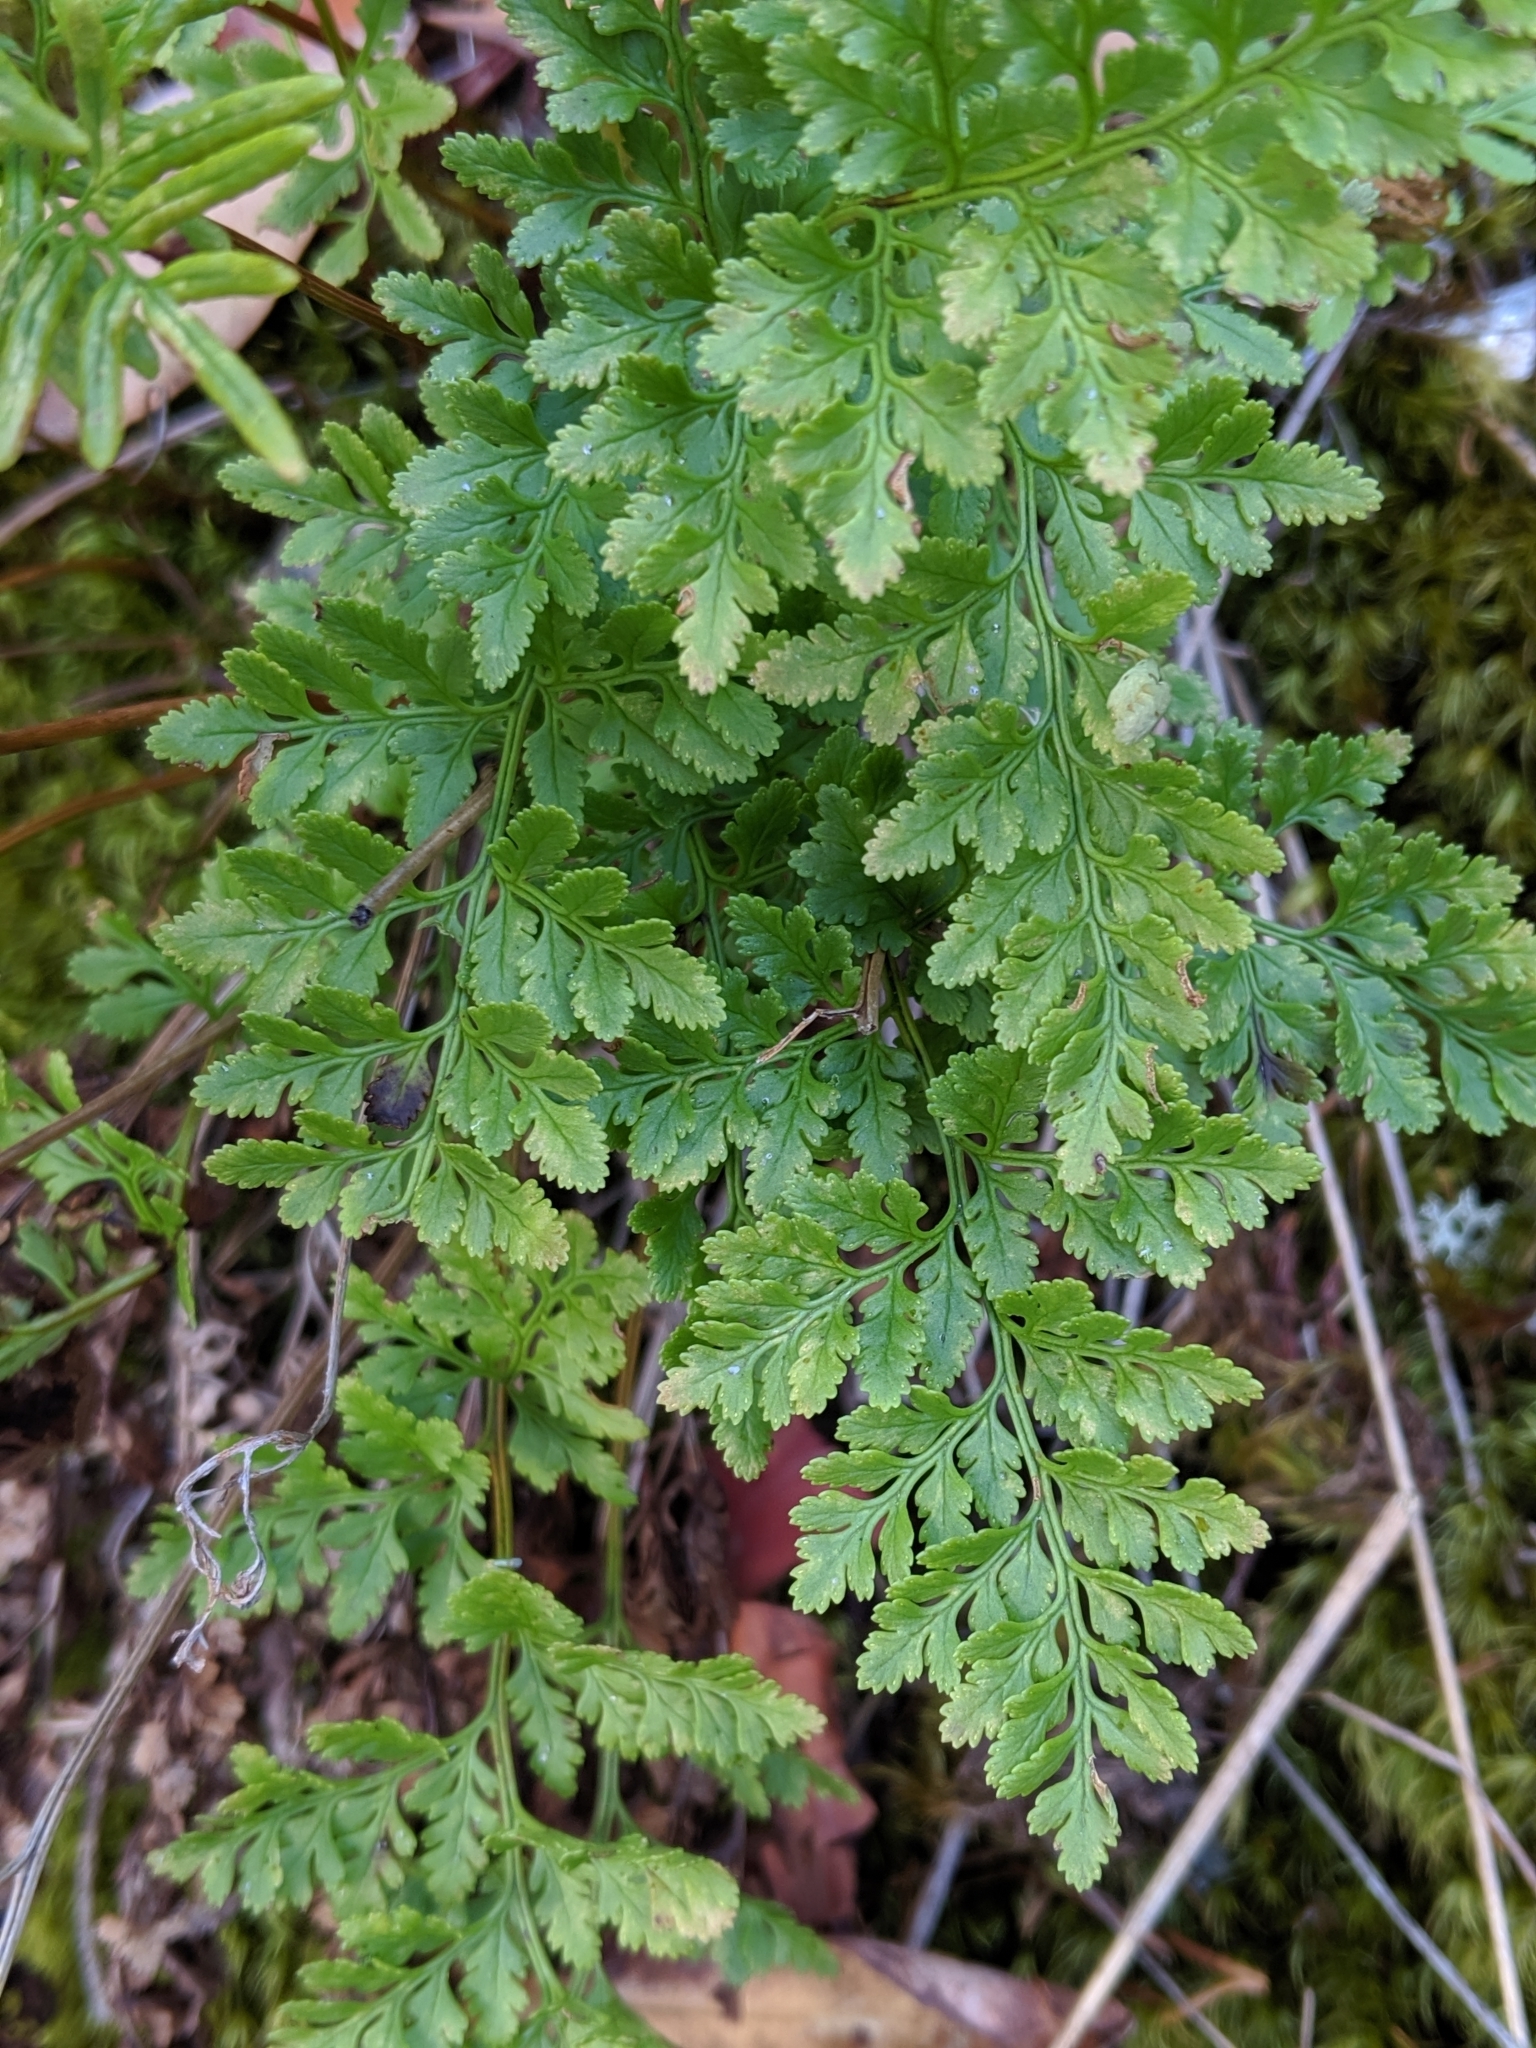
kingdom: Plantae
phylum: Tracheophyta
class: Polypodiopsida
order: Polypodiales
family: Pteridaceae
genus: Cryptogramma
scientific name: Cryptogramma acrostichoides
